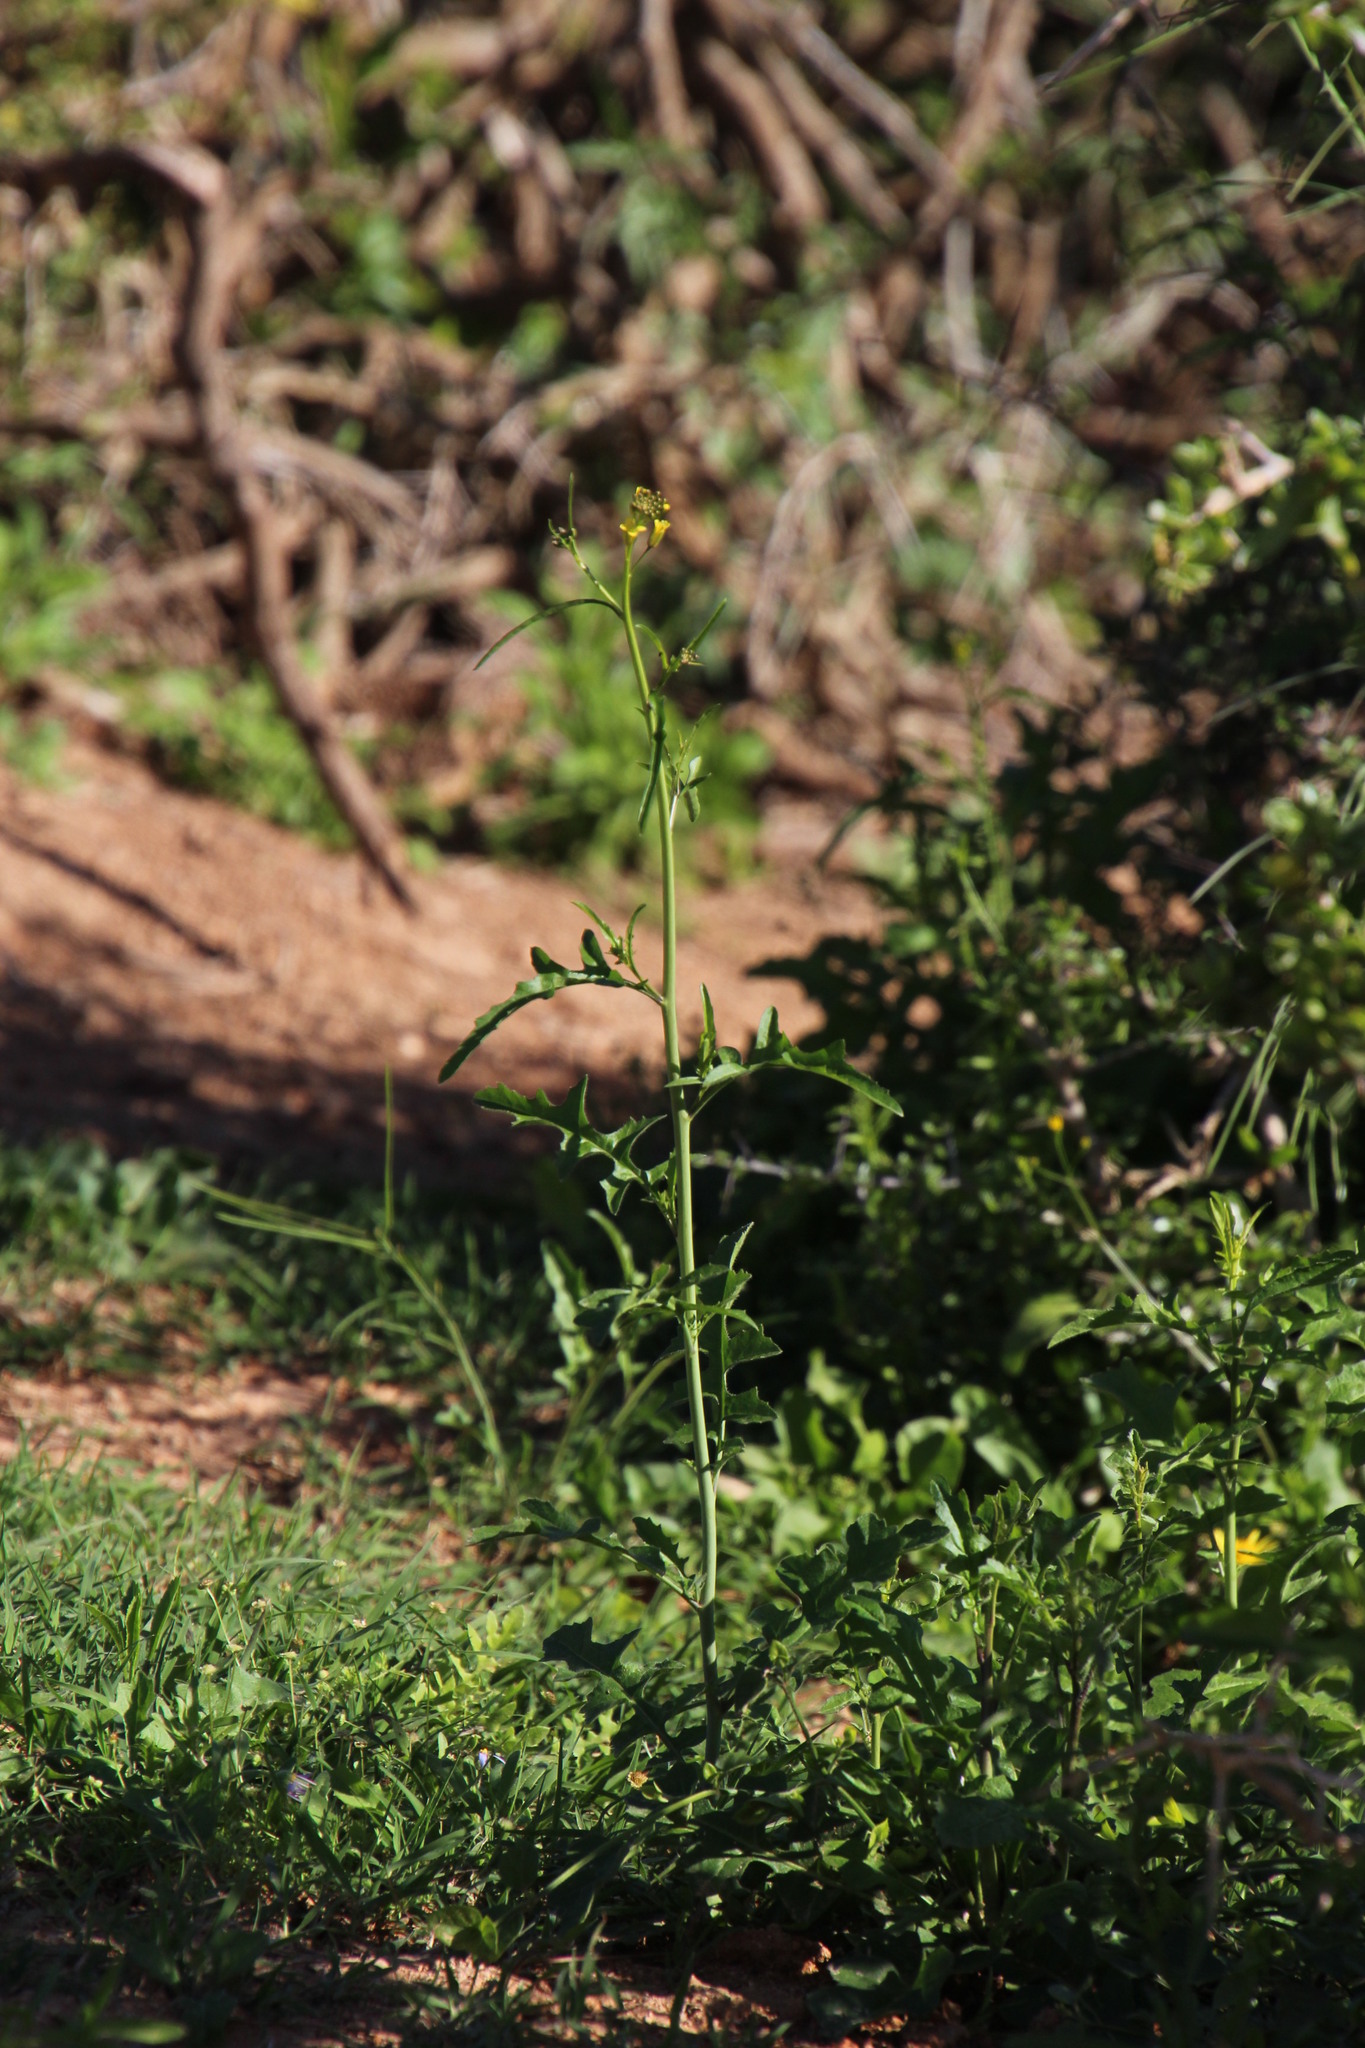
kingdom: Plantae
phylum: Tracheophyta
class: Magnoliopsida
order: Brassicales
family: Brassicaceae
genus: Sisymbrium
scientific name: Sisymbrium capense
